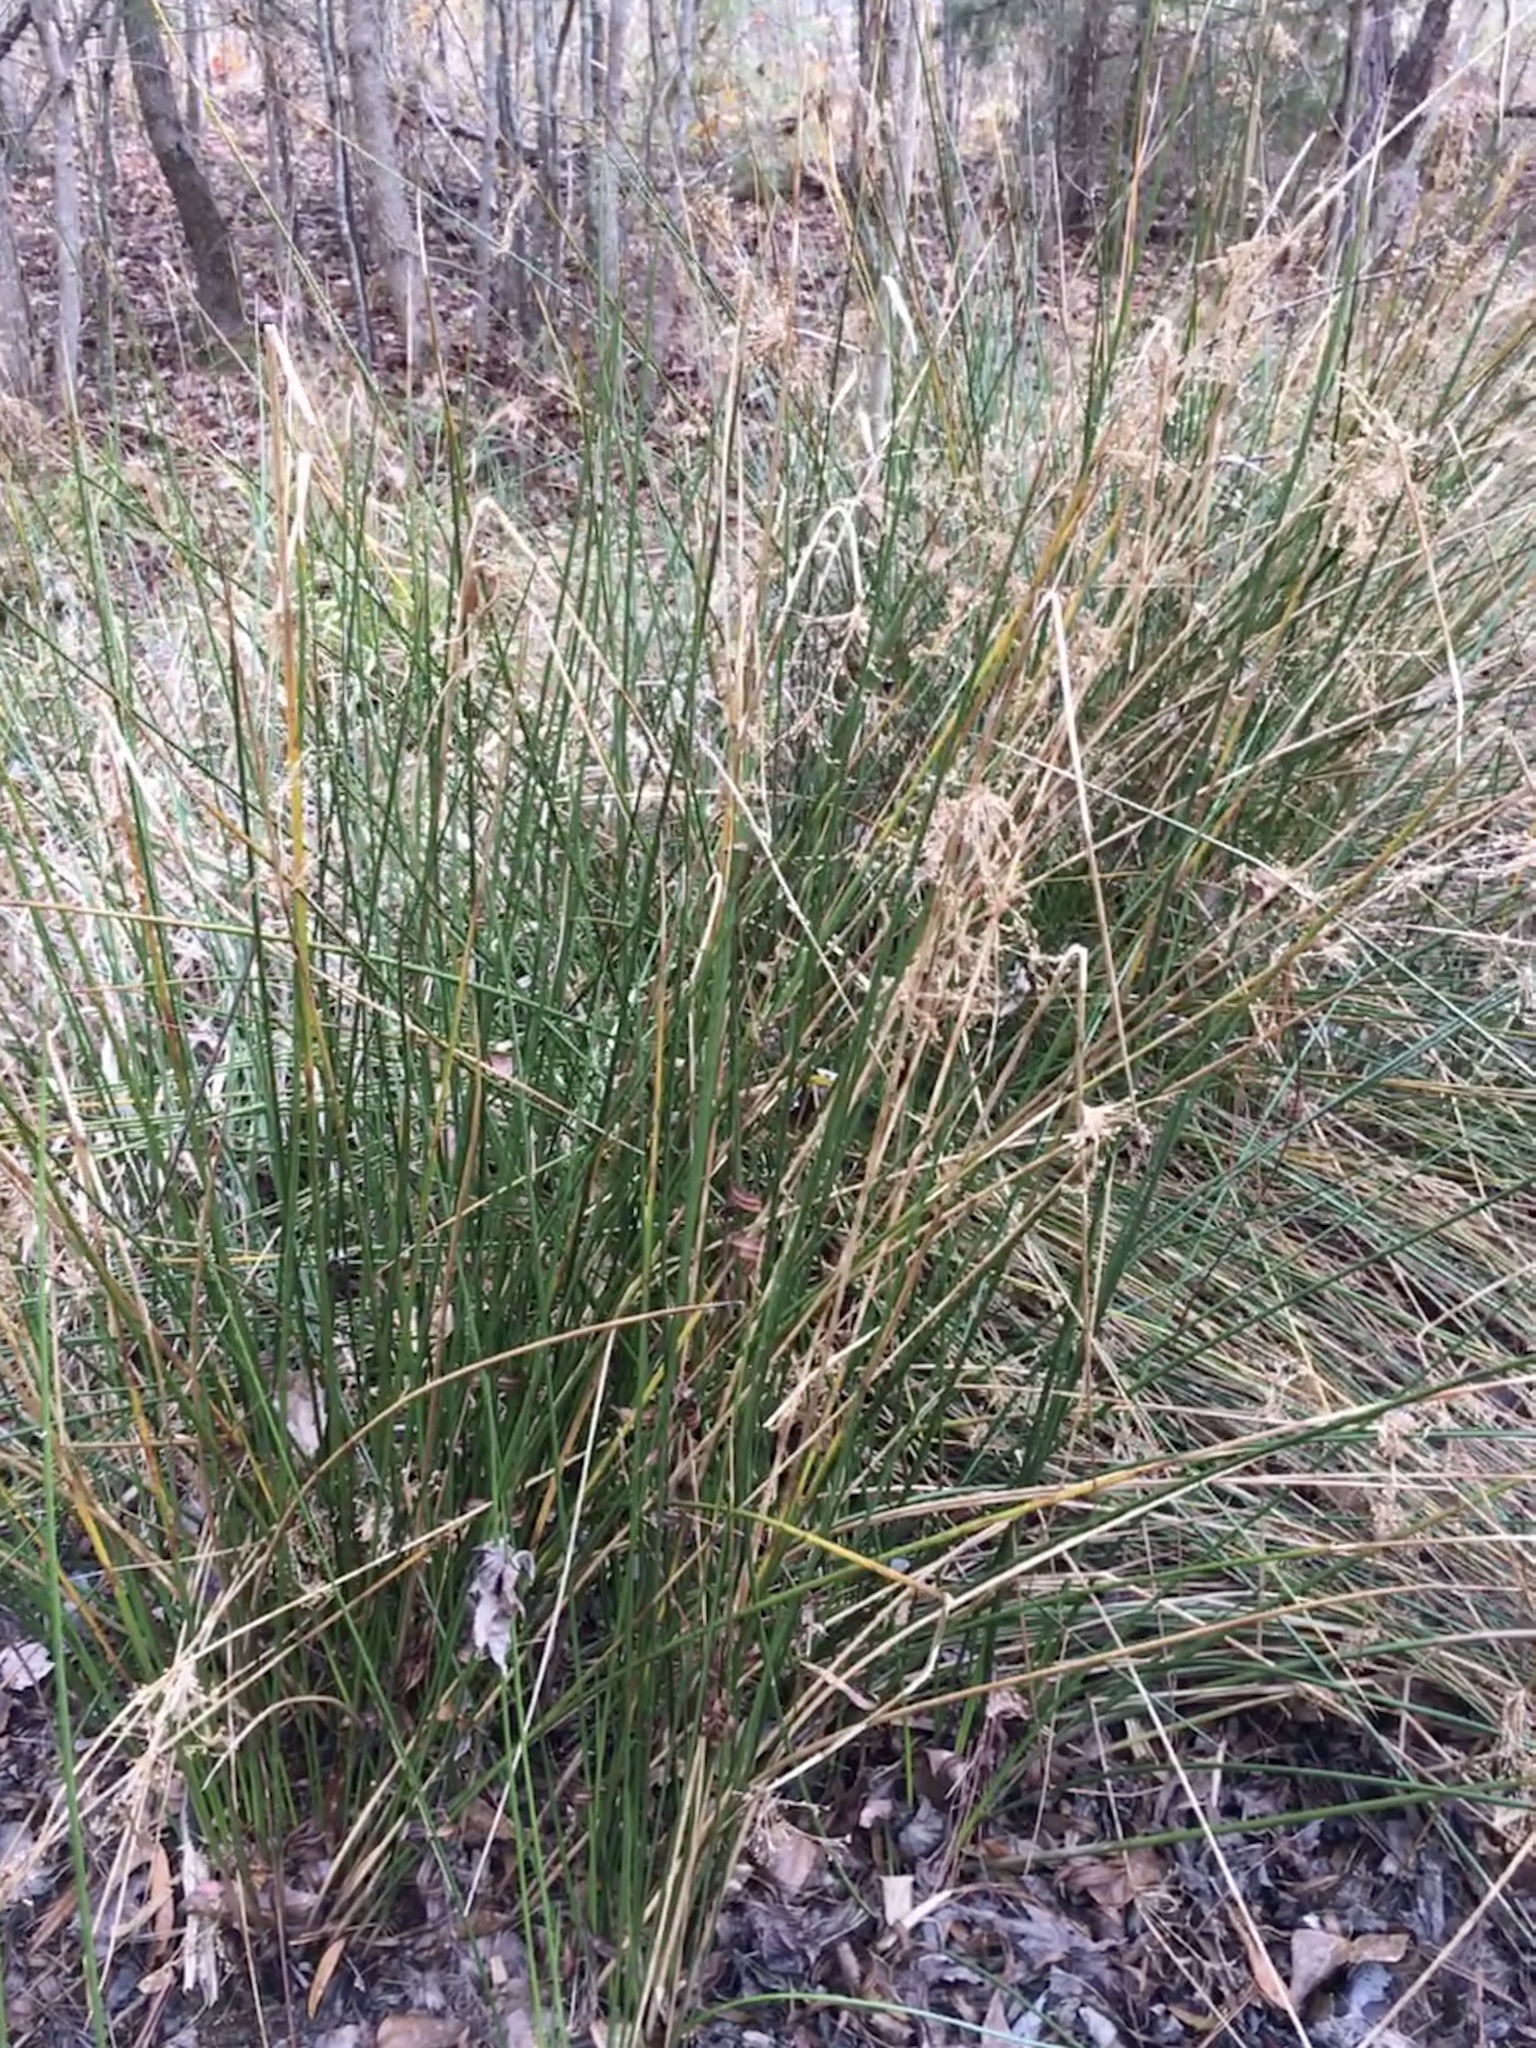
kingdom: Plantae
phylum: Tracheophyta
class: Liliopsida
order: Poales
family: Juncaceae
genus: Juncus
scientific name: Juncus effusus
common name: Soft rush
